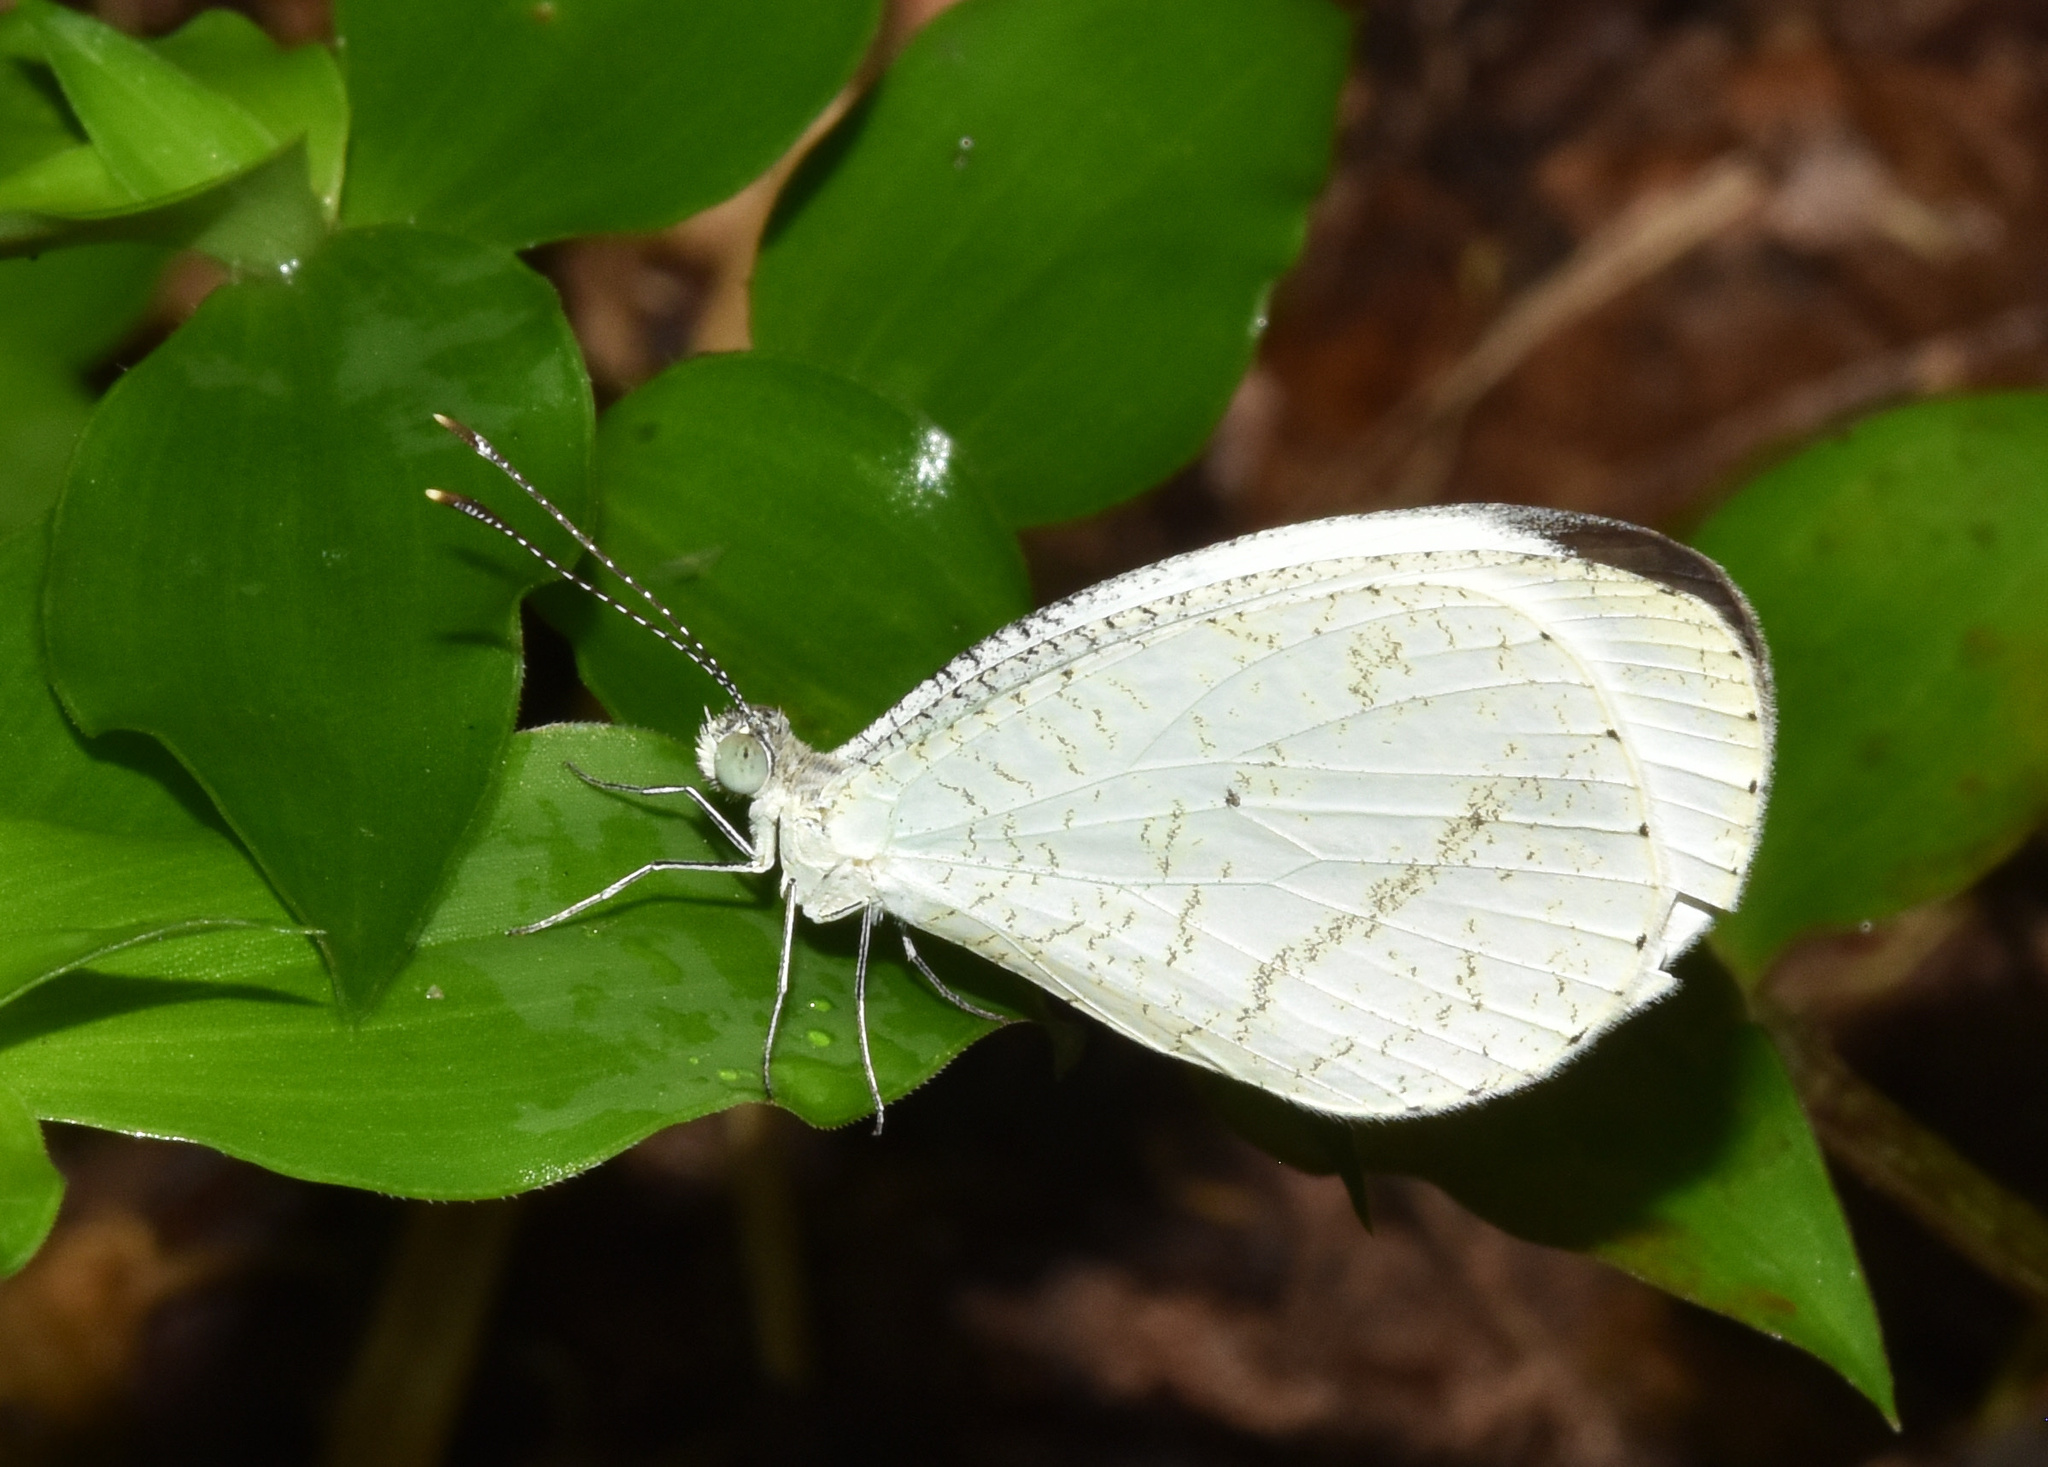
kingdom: Animalia
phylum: Arthropoda
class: Insecta
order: Lepidoptera
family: Pieridae
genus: Leptosia
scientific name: Leptosia alcesta
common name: African wood white
